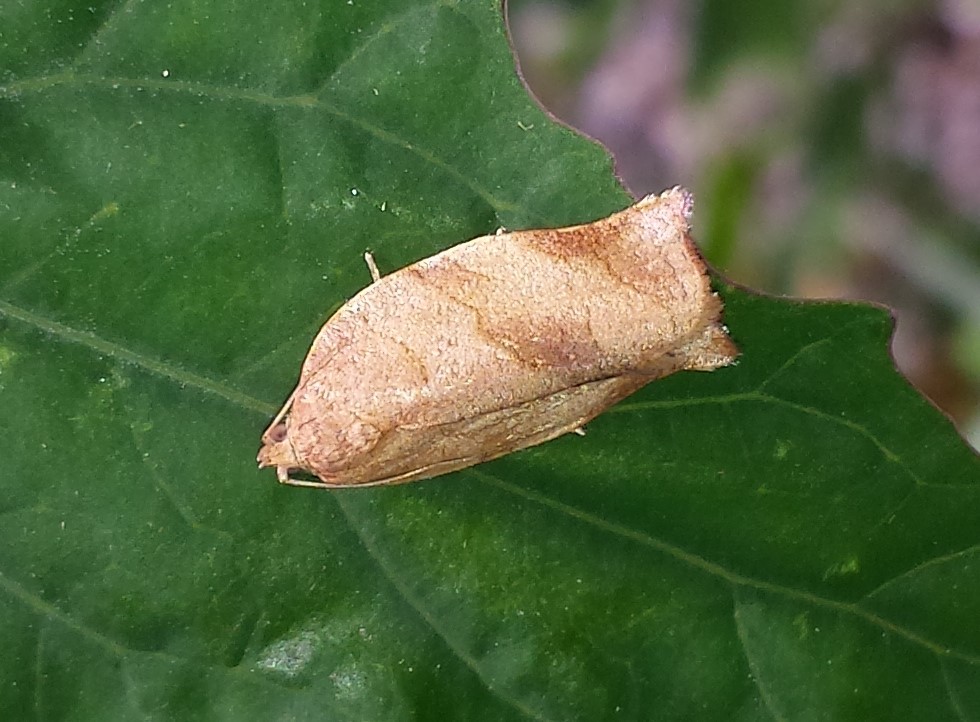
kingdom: Animalia
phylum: Arthropoda
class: Insecta
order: Lepidoptera
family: Tortricidae
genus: Choristoneura
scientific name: Choristoneura rosaceana
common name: Oblique-banded leafroller moth
